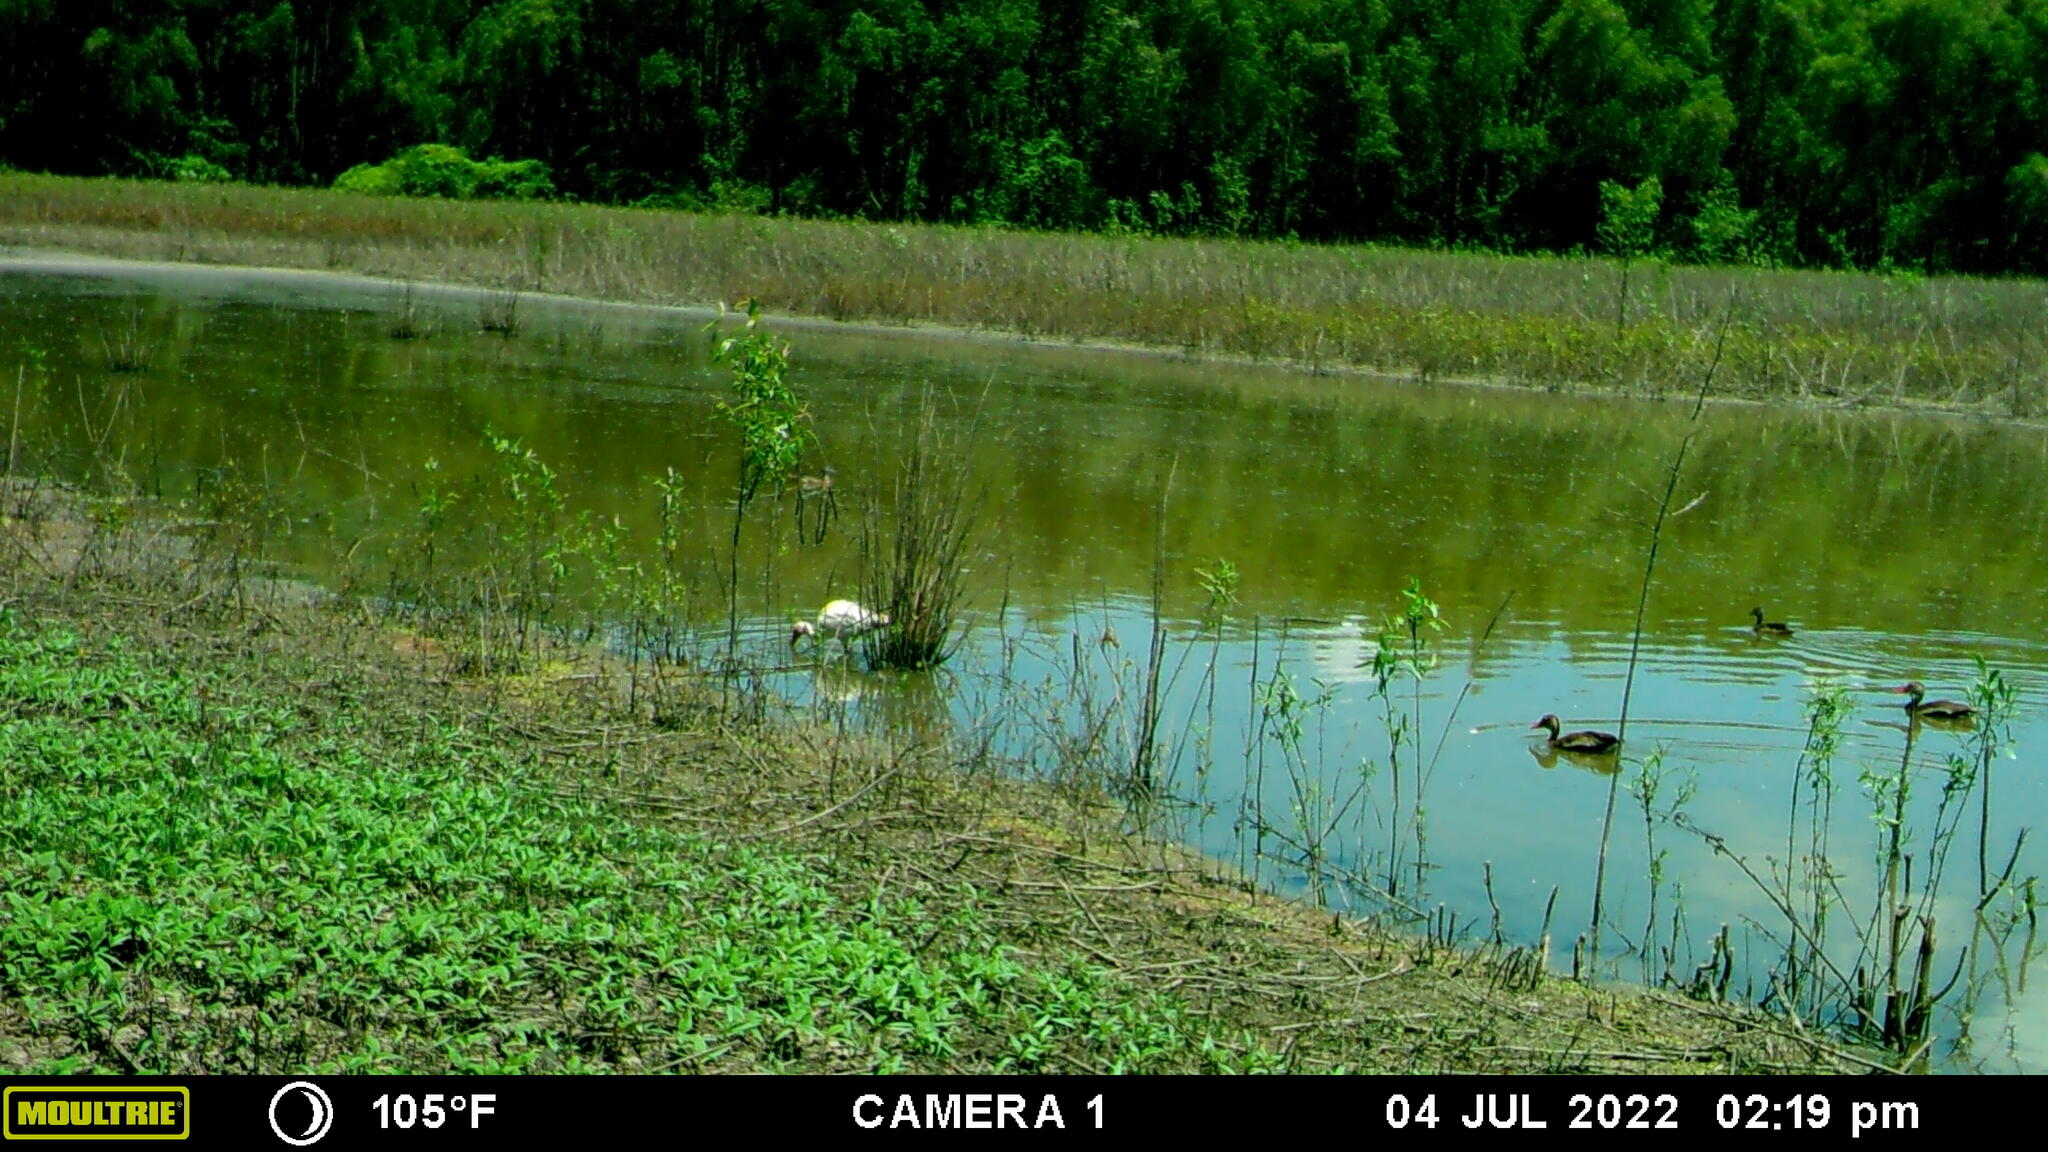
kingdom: Animalia
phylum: Chordata
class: Aves
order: Anseriformes
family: Anatidae
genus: Dendrocygna
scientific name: Dendrocygna autumnalis
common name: Black-bellied whistling duck
